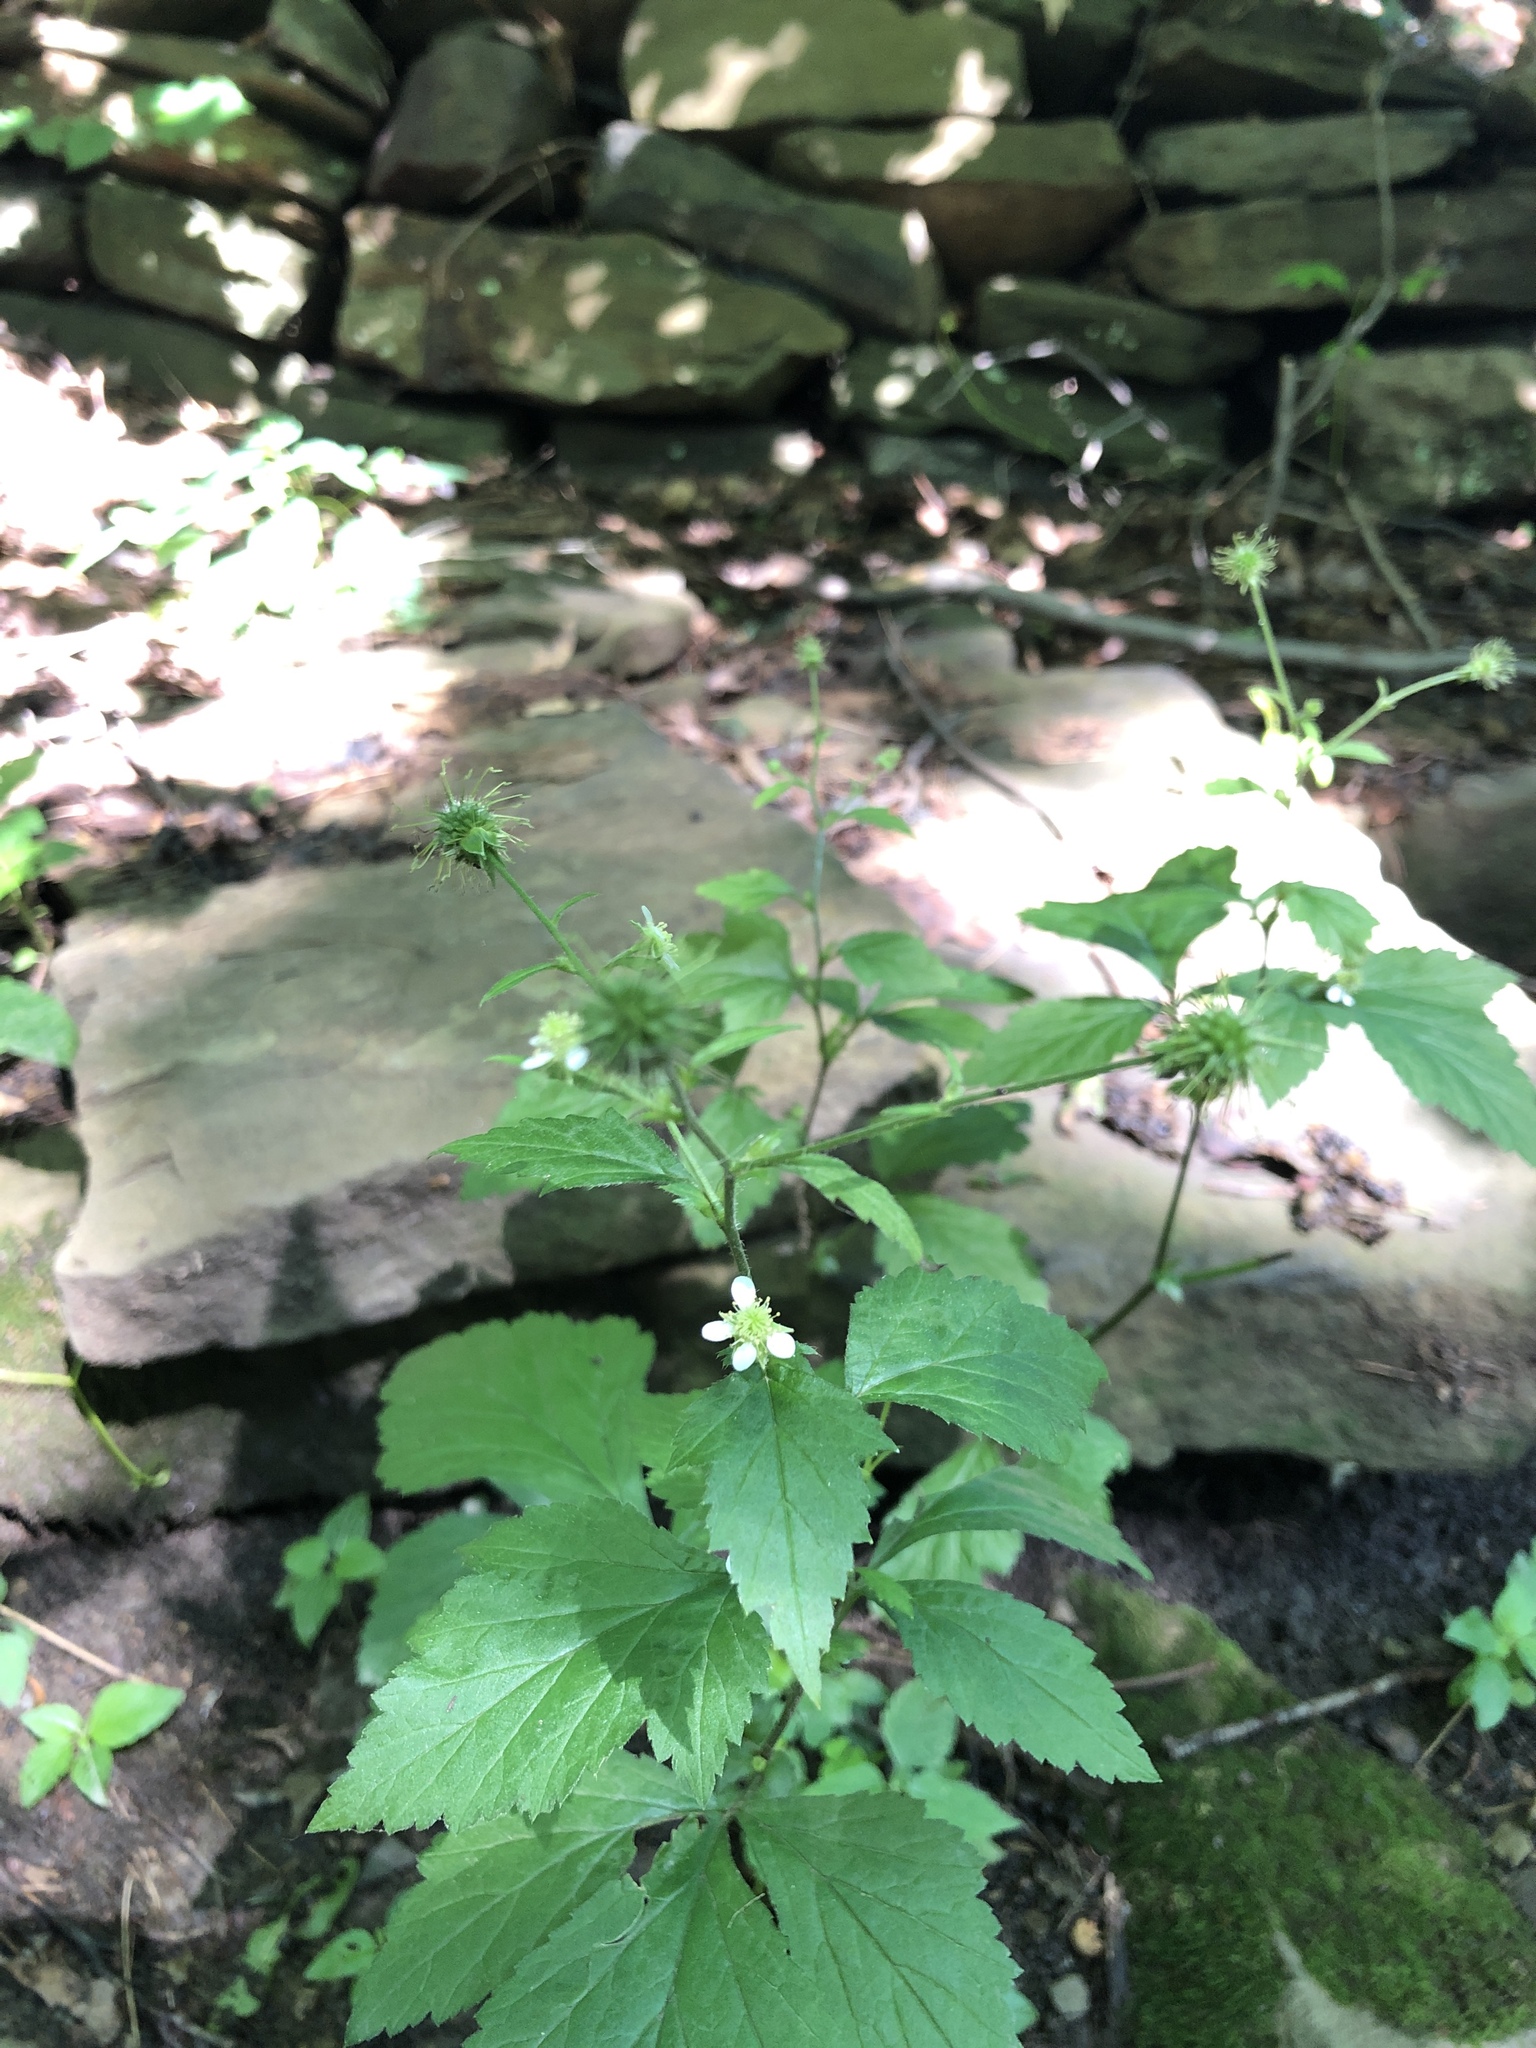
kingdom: Plantae
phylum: Tracheophyta
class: Magnoliopsida
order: Rosales
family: Rosaceae
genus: Geum
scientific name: Geum canadense
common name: White avens
